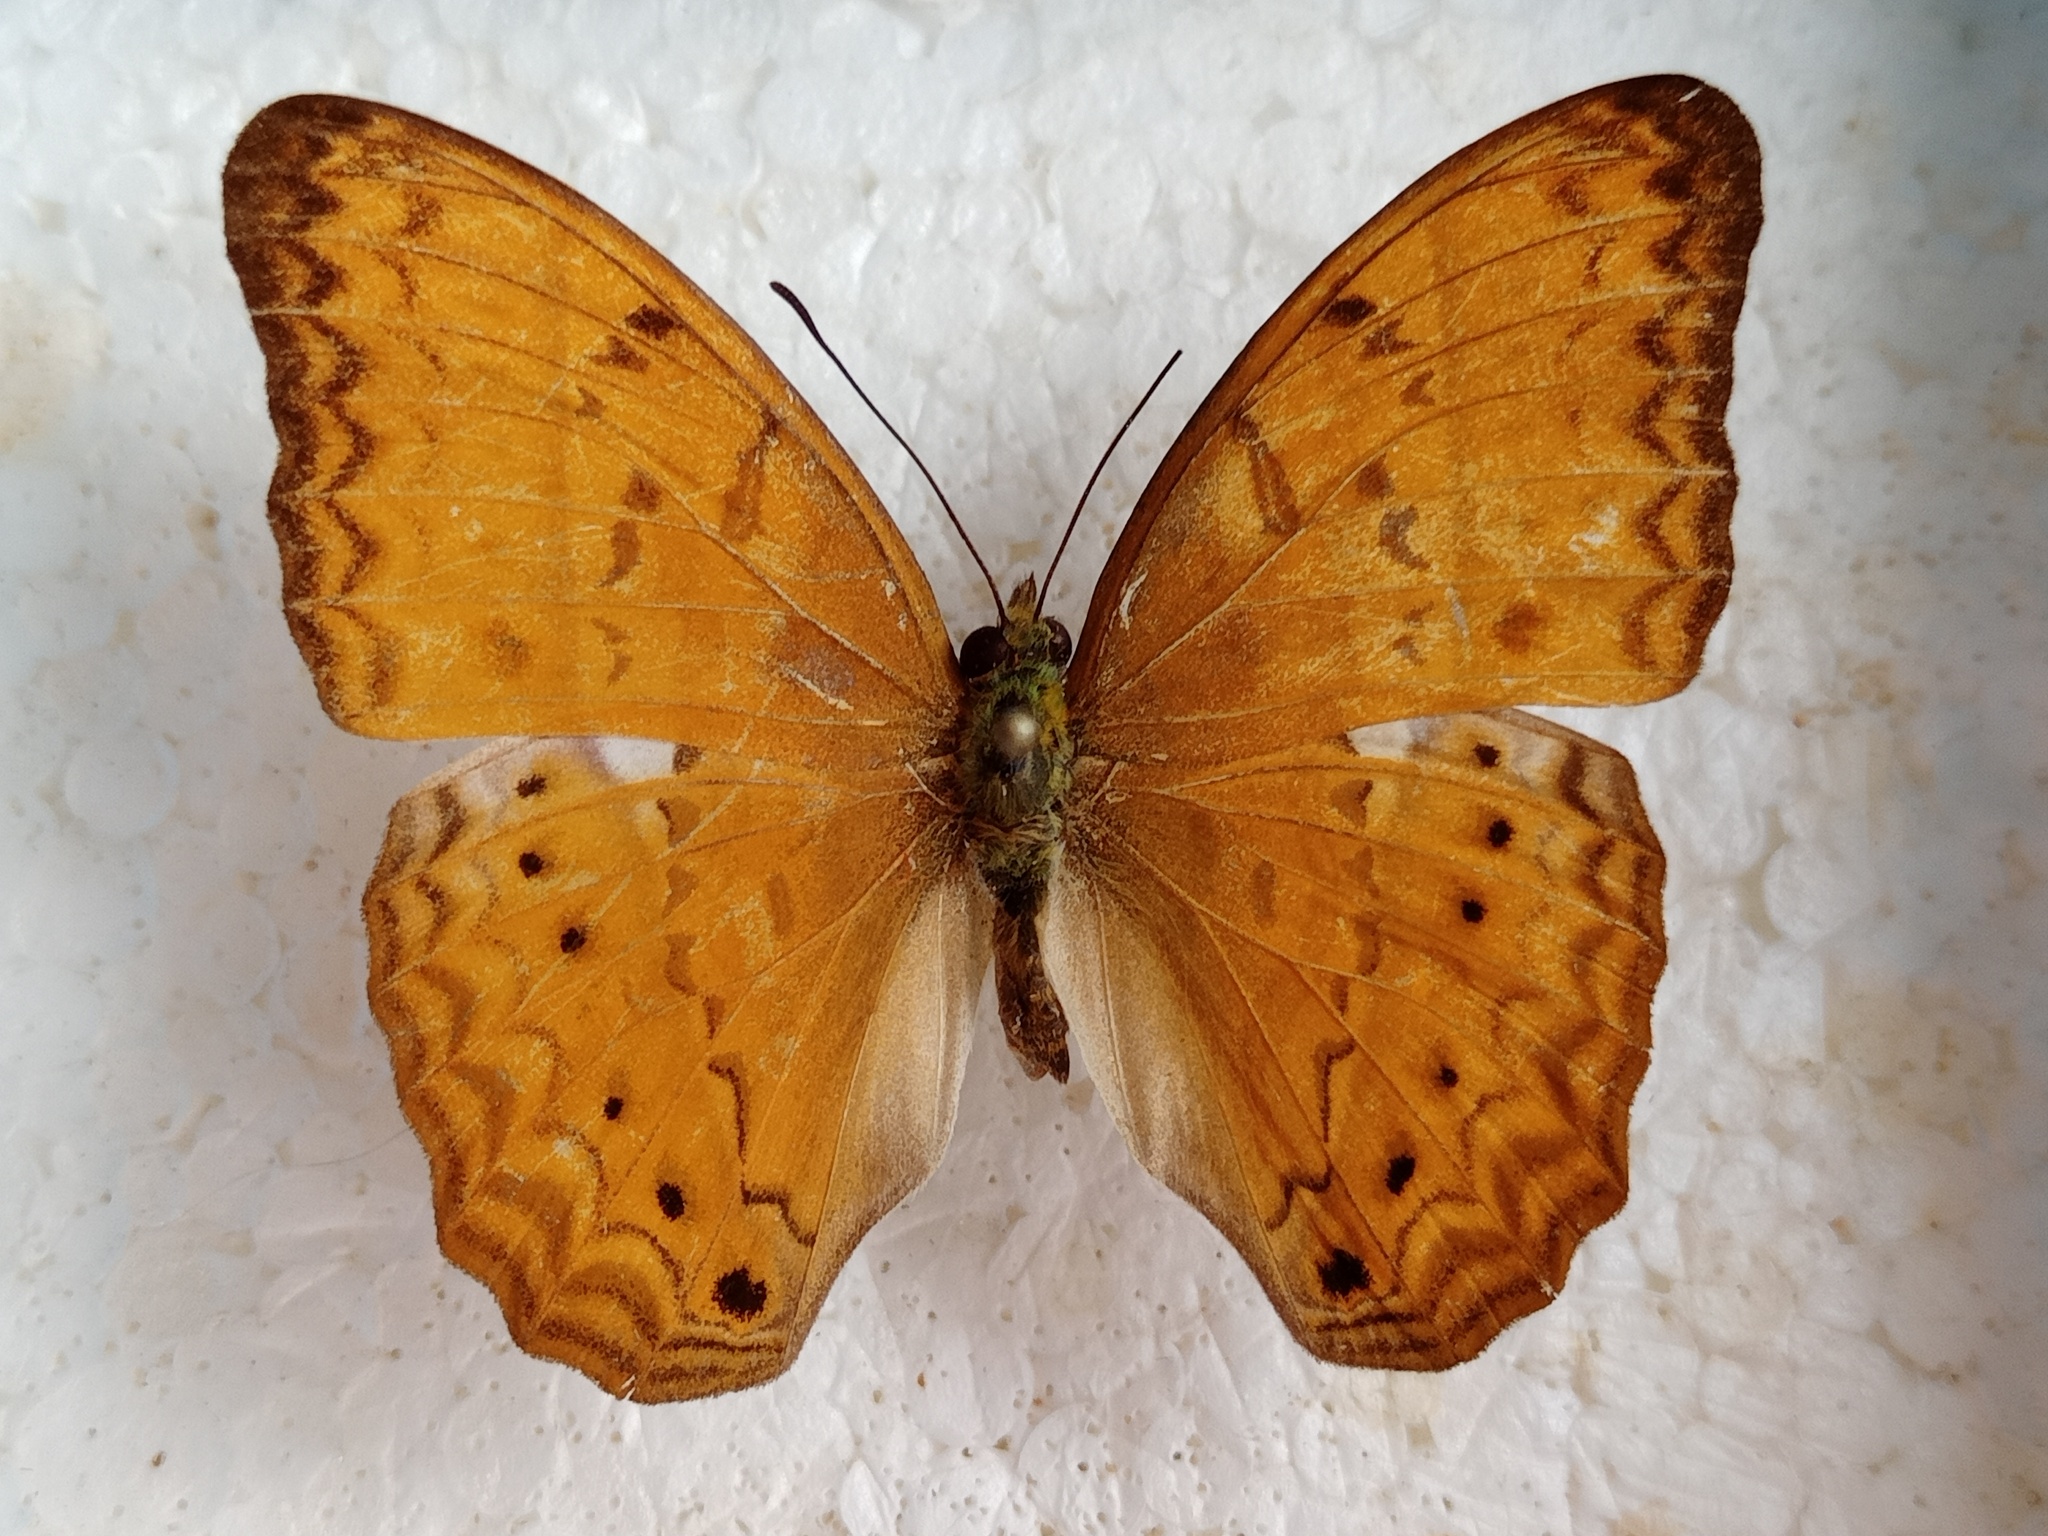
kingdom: Animalia
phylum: Arthropoda
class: Insecta
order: Lepidoptera
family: Nymphalidae
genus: Cirrochroa
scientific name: Cirrochroa tyche
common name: Common yeoman
